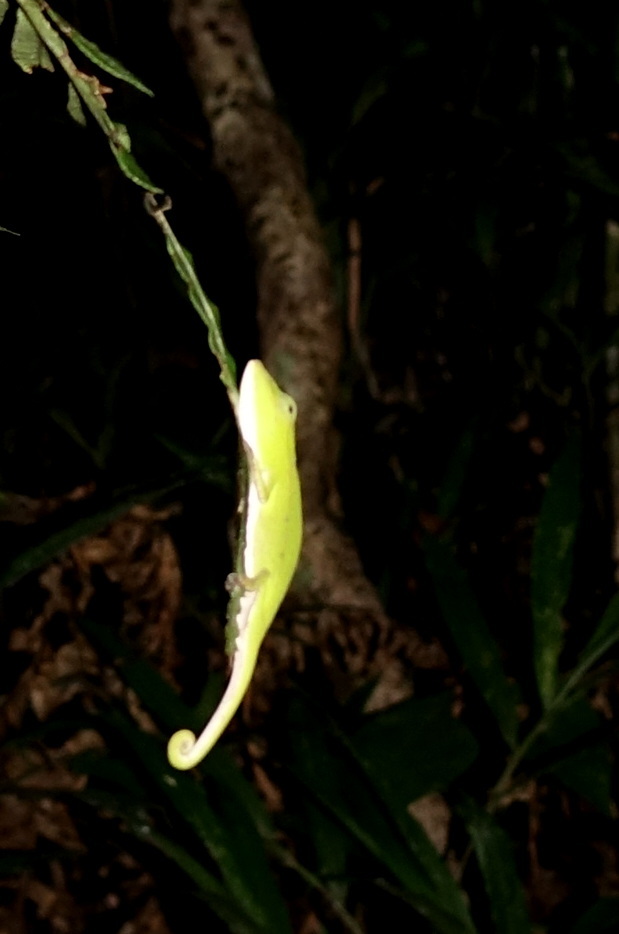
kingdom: Animalia
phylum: Chordata
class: Squamata
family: Chamaeleonidae
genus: Calumma
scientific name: Calumma gastrotaenia
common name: Short-nosed chameleon
